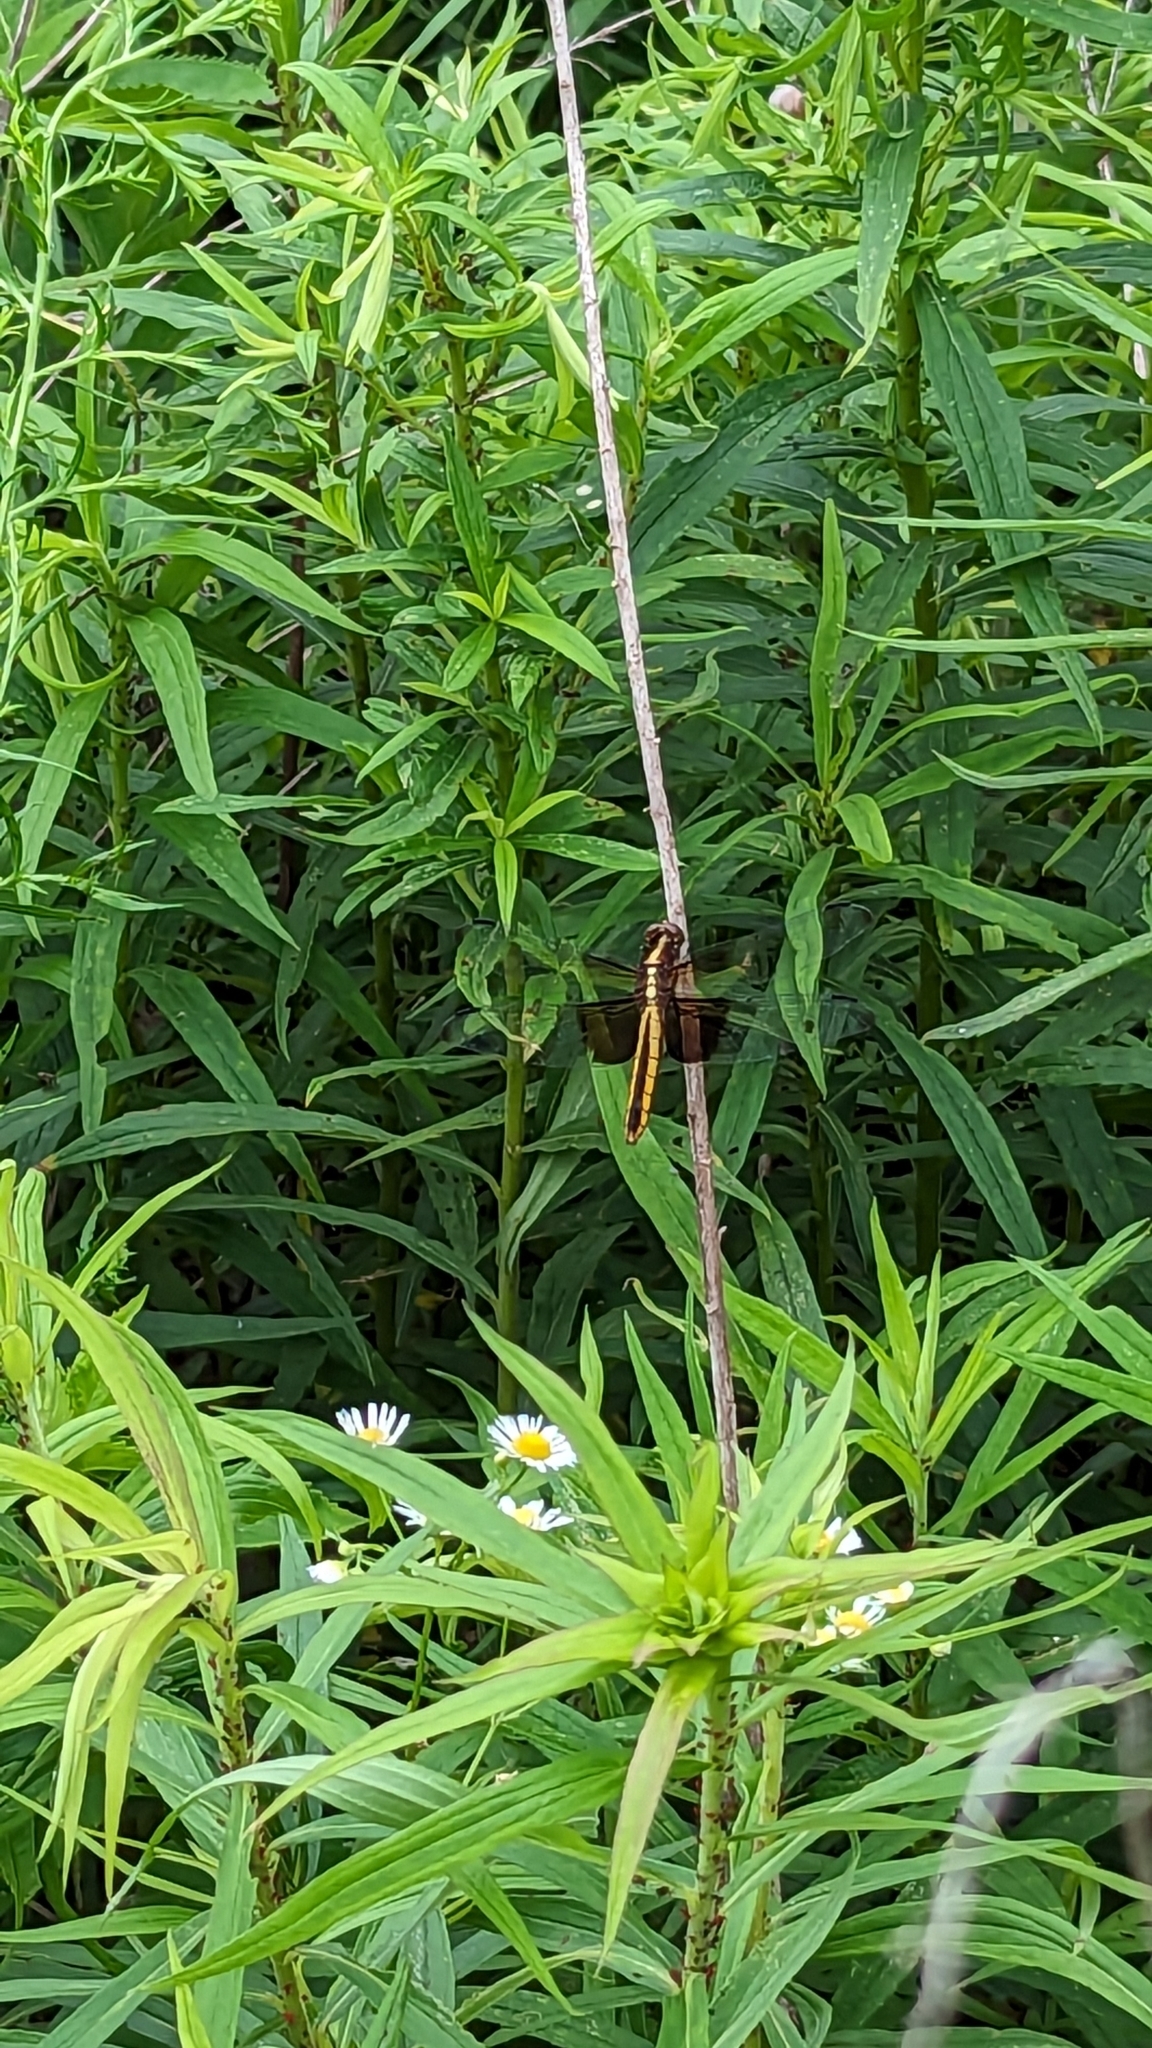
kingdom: Animalia
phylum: Arthropoda
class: Insecta
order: Odonata
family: Libellulidae
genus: Libellula
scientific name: Libellula luctuosa
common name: Widow skimmer
